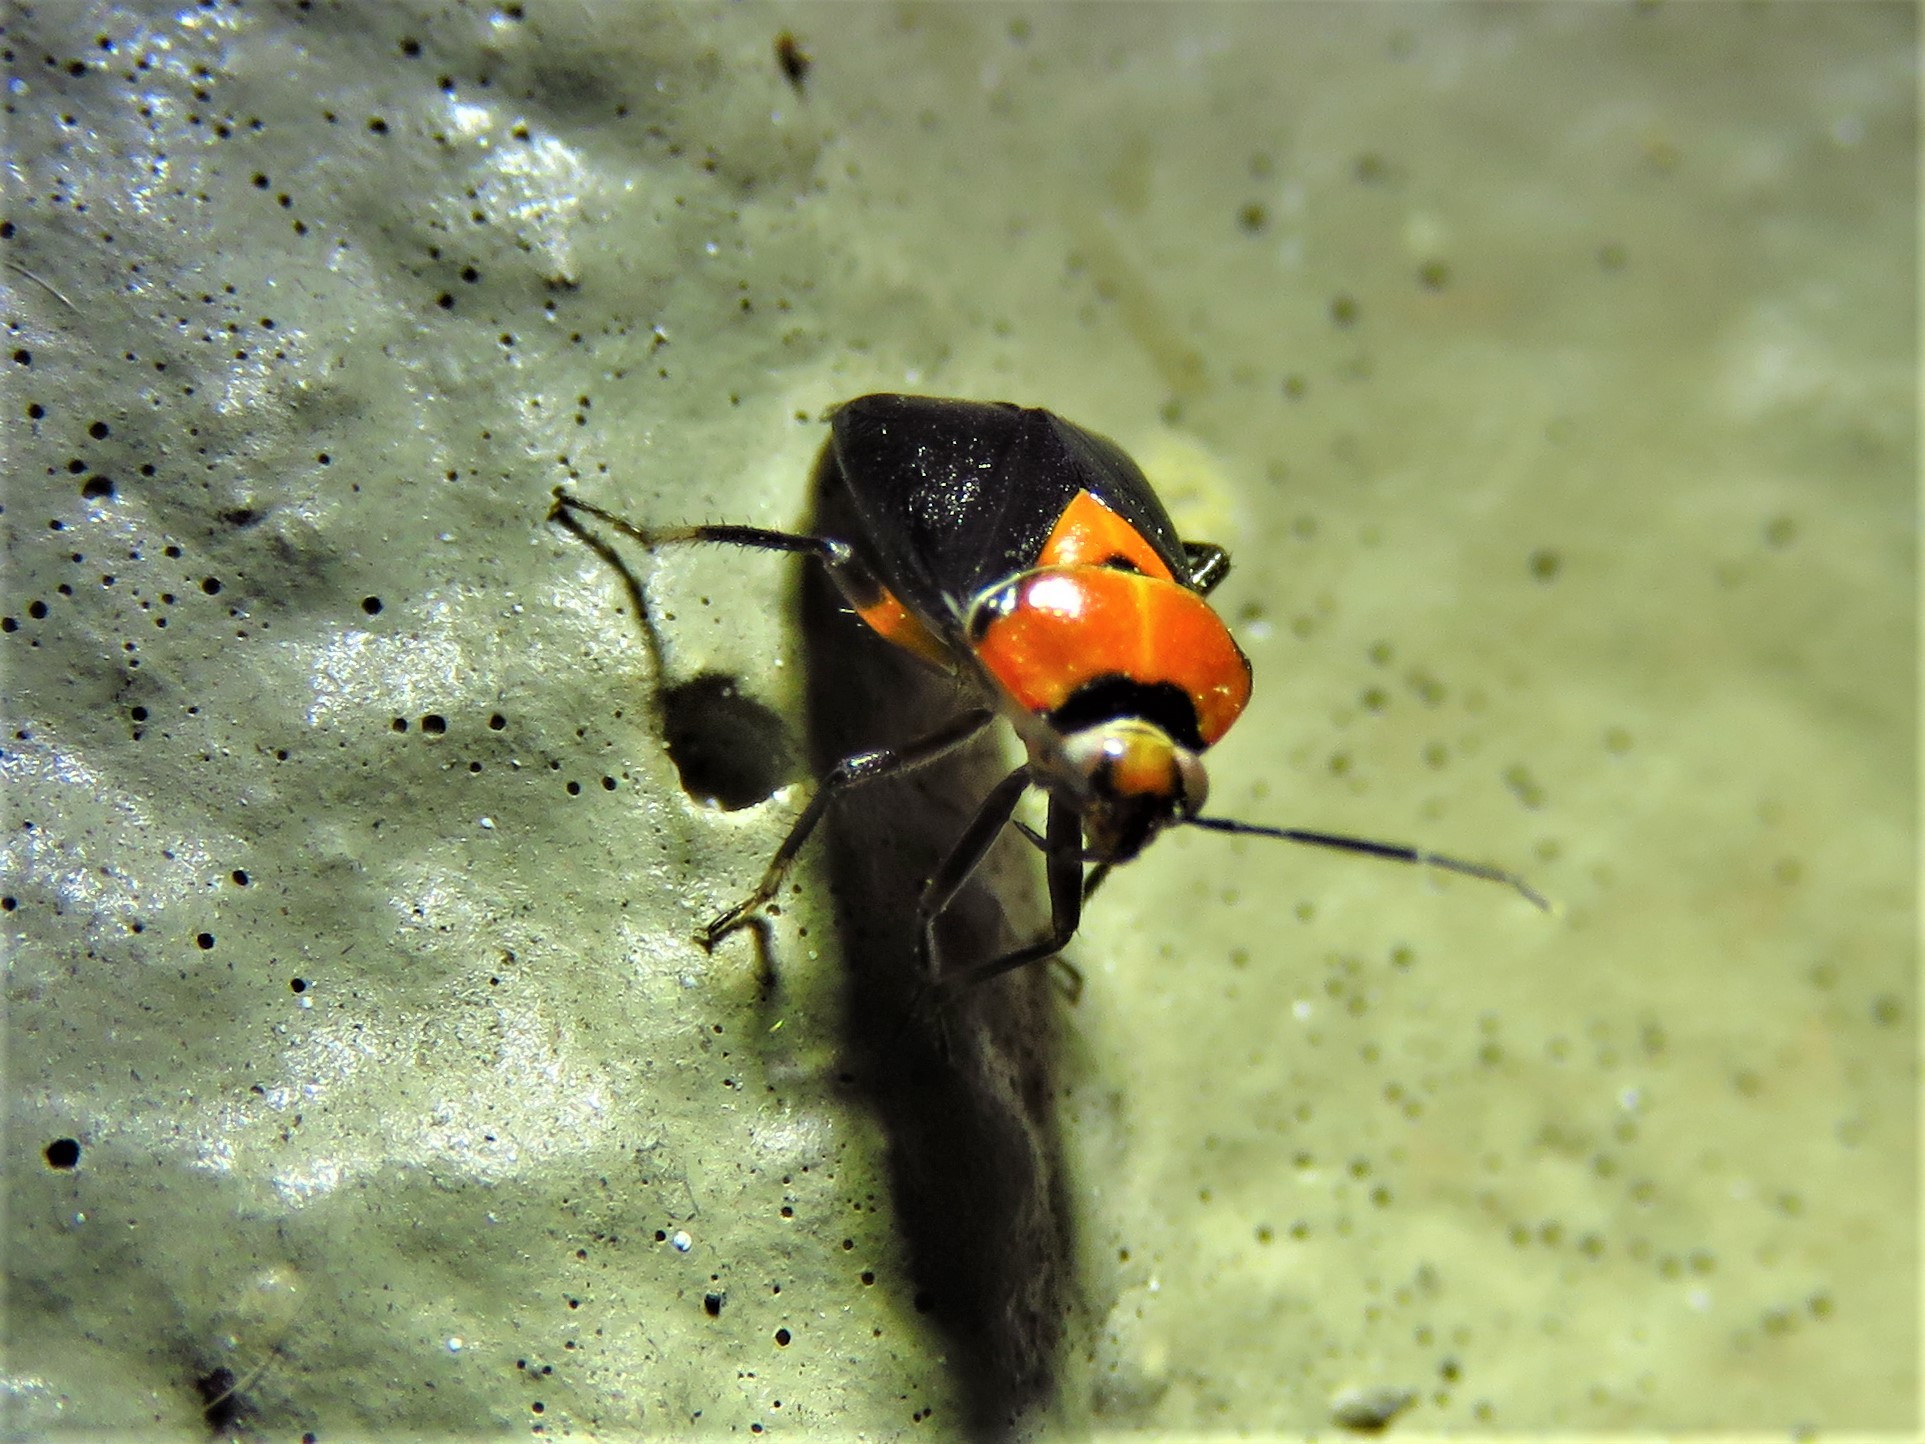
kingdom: Animalia
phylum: Arthropoda
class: Insecta
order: Hemiptera
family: Miridae
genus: Neocapsus
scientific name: Neocapsus cuneatus
